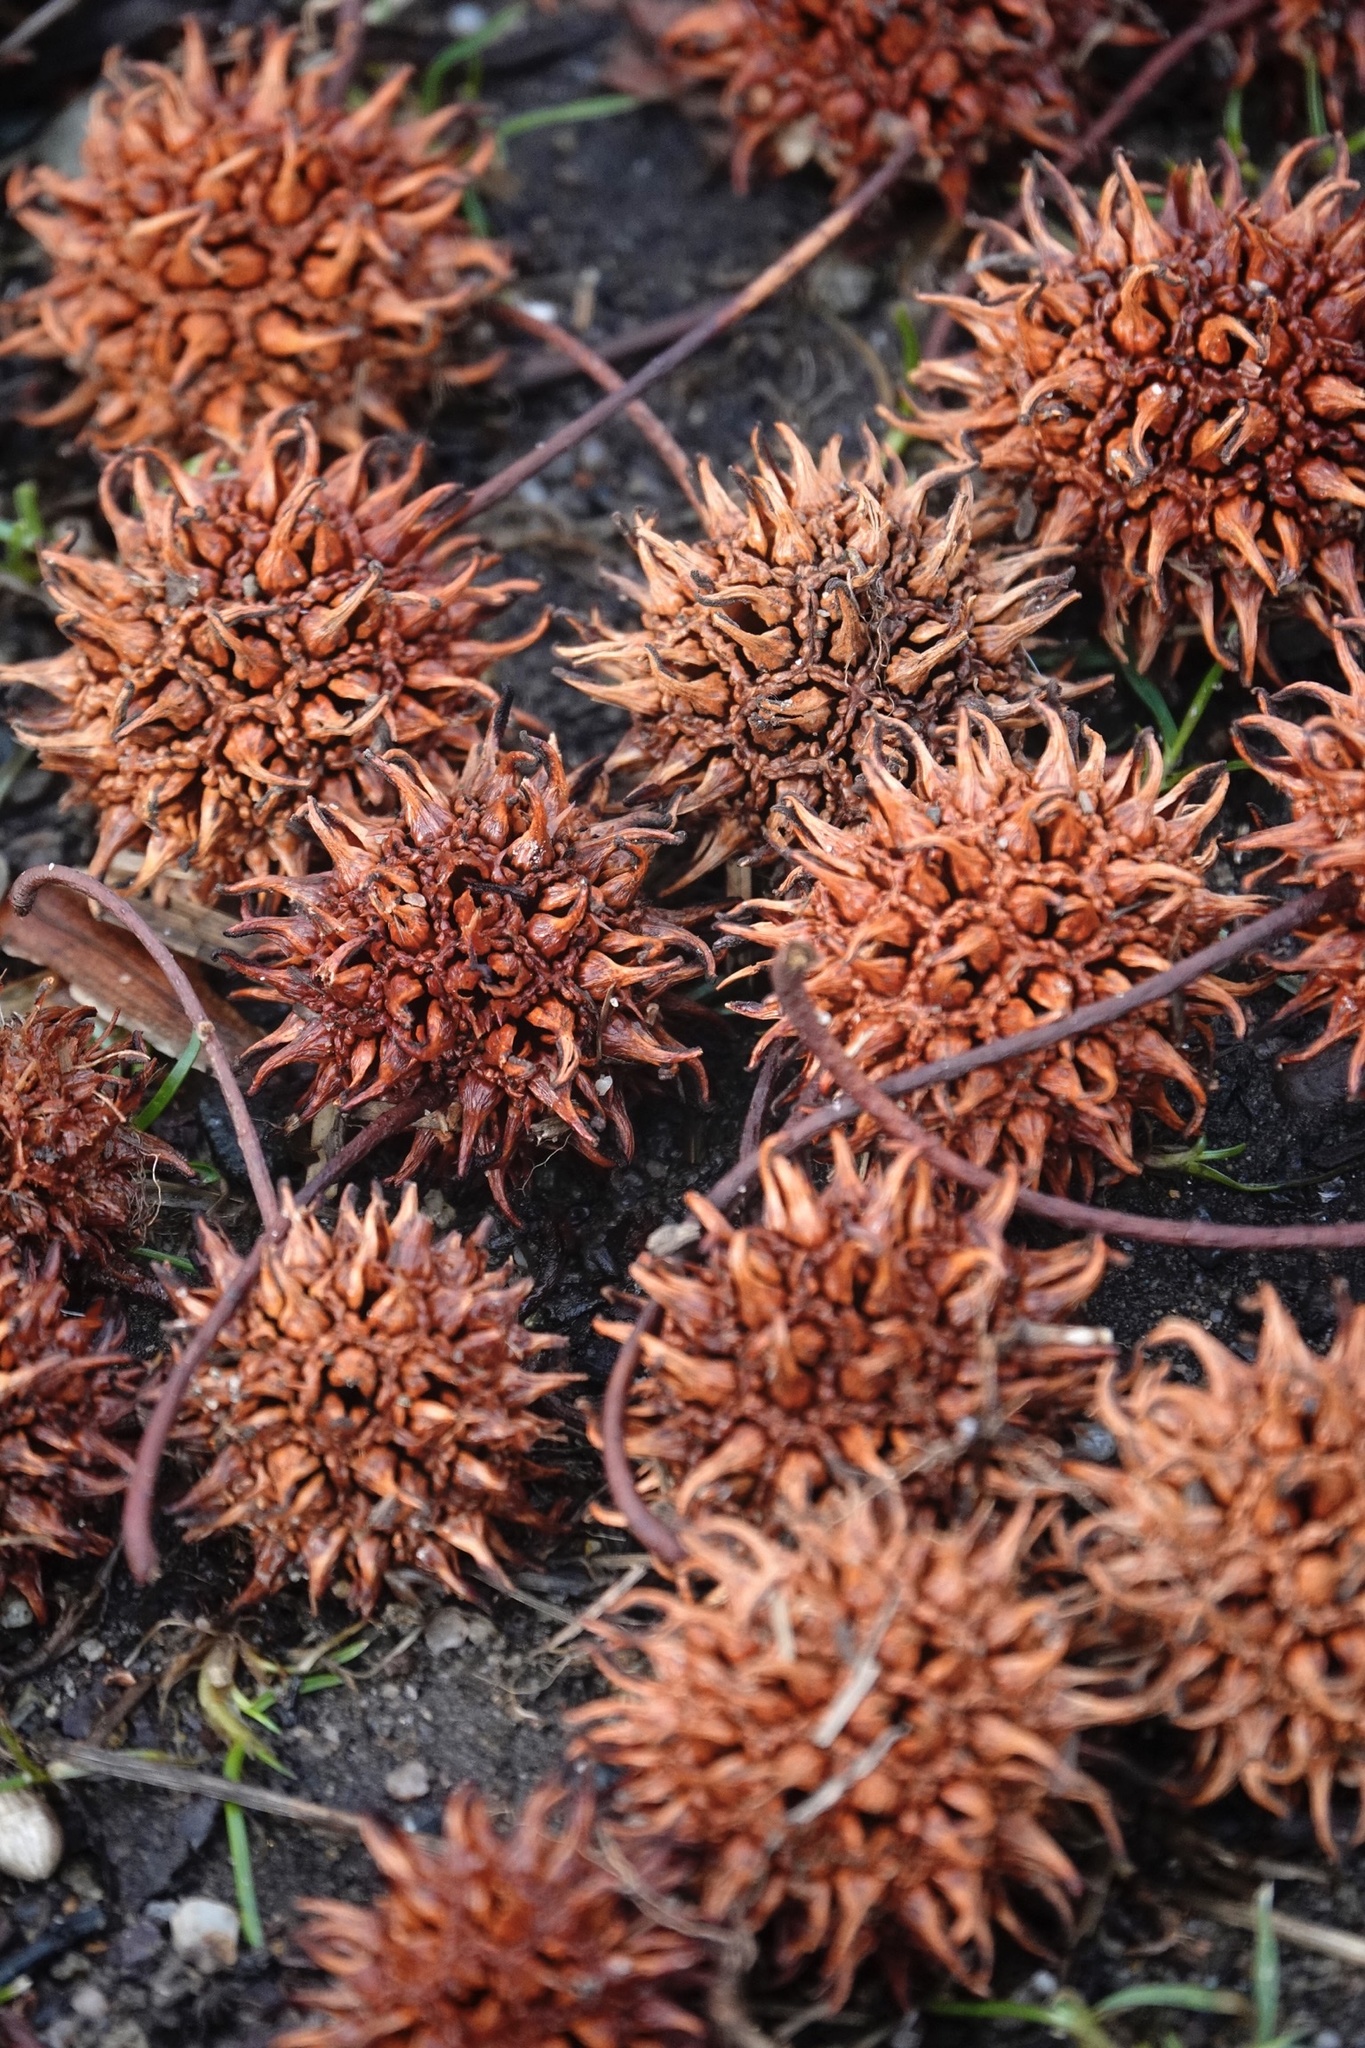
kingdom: Plantae
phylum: Tracheophyta
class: Magnoliopsida
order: Saxifragales
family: Altingiaceae
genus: Liquidambar
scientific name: Liquidambar styraciflua
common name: Sweet gum
